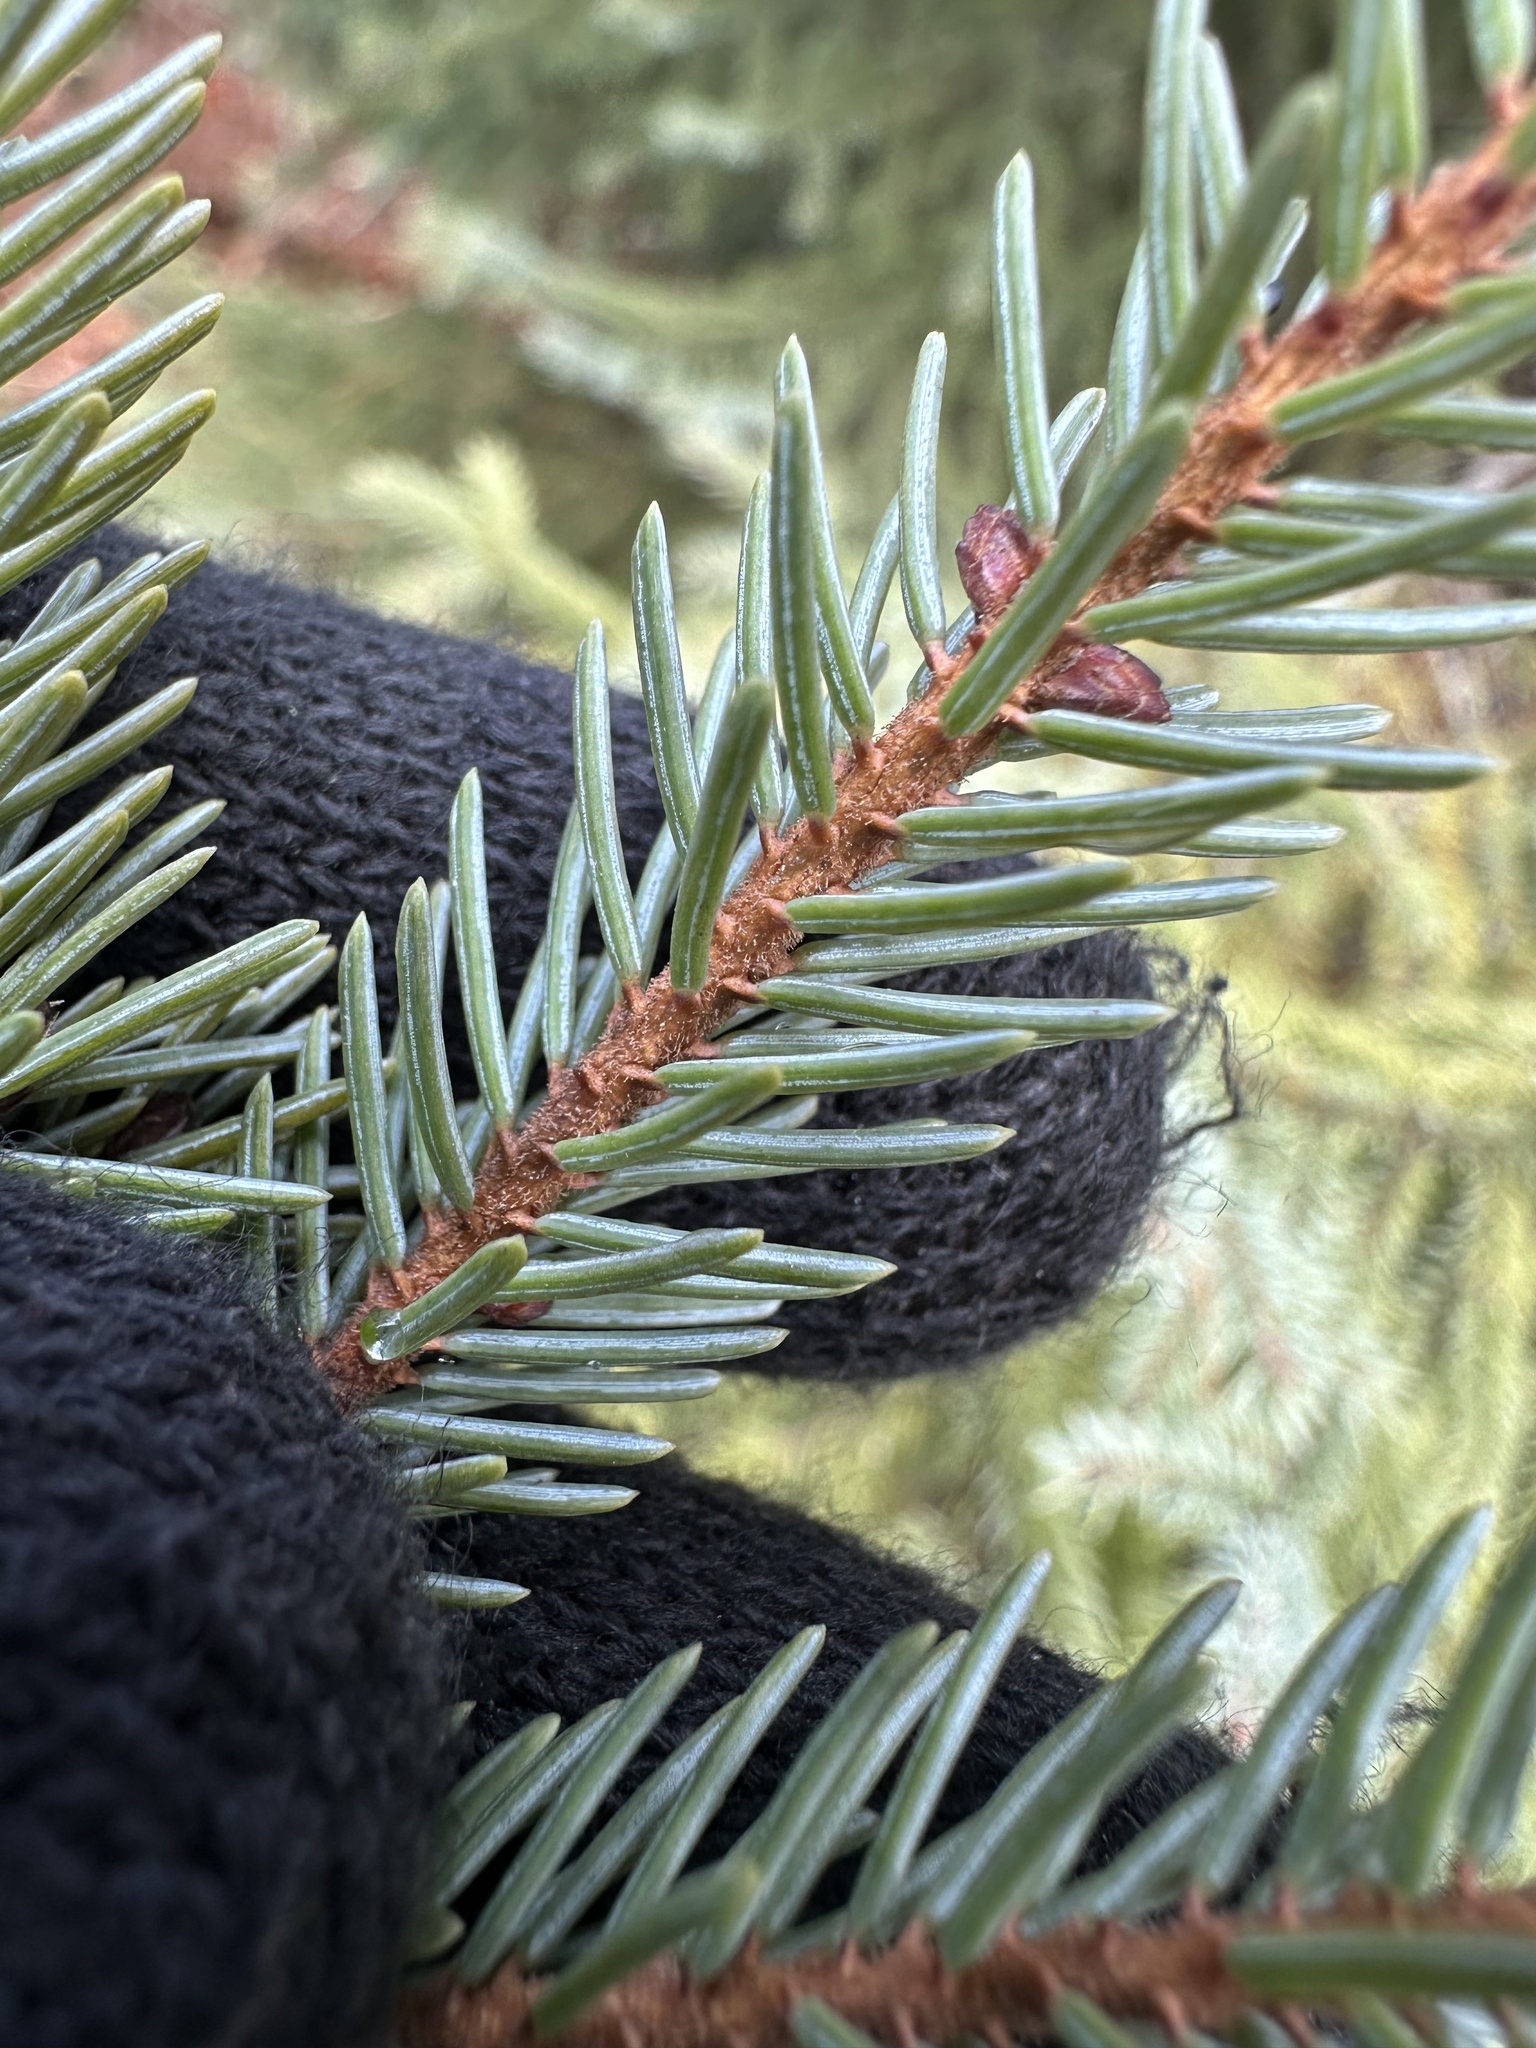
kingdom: Plantae
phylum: Tracheophyta
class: Pinopsida
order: Pinales
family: Pinaceae
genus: Picea
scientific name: Picea mariana
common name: Black spruce
